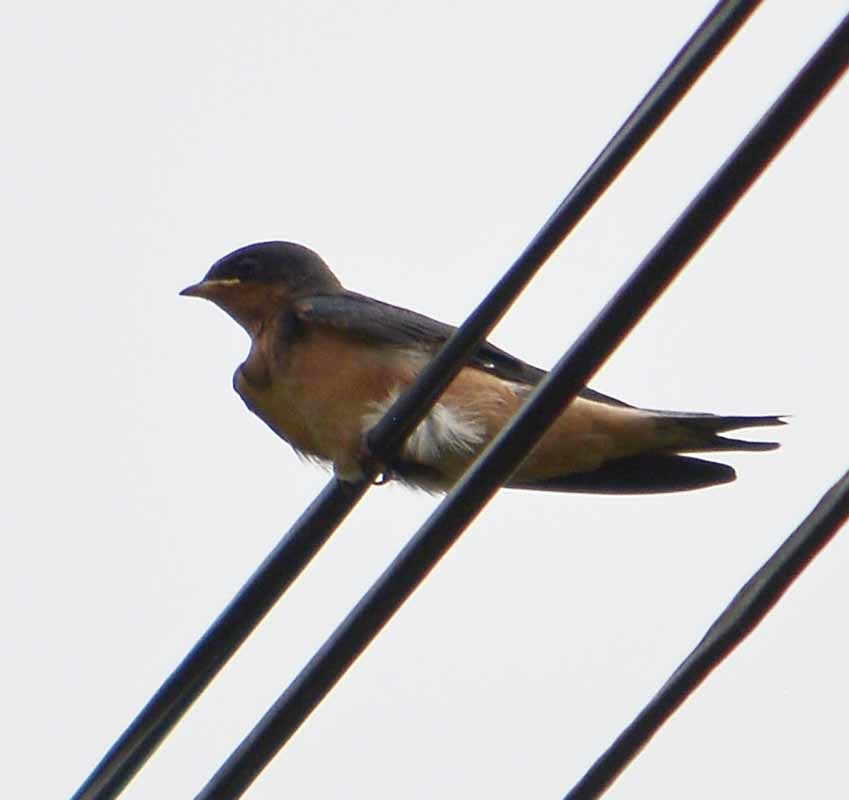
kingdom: Animalia
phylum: Chordata
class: Aves
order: Passeriformes
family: Hirundinidae
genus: Hirundo
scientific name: Hirundo rustica
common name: Barn swallow
